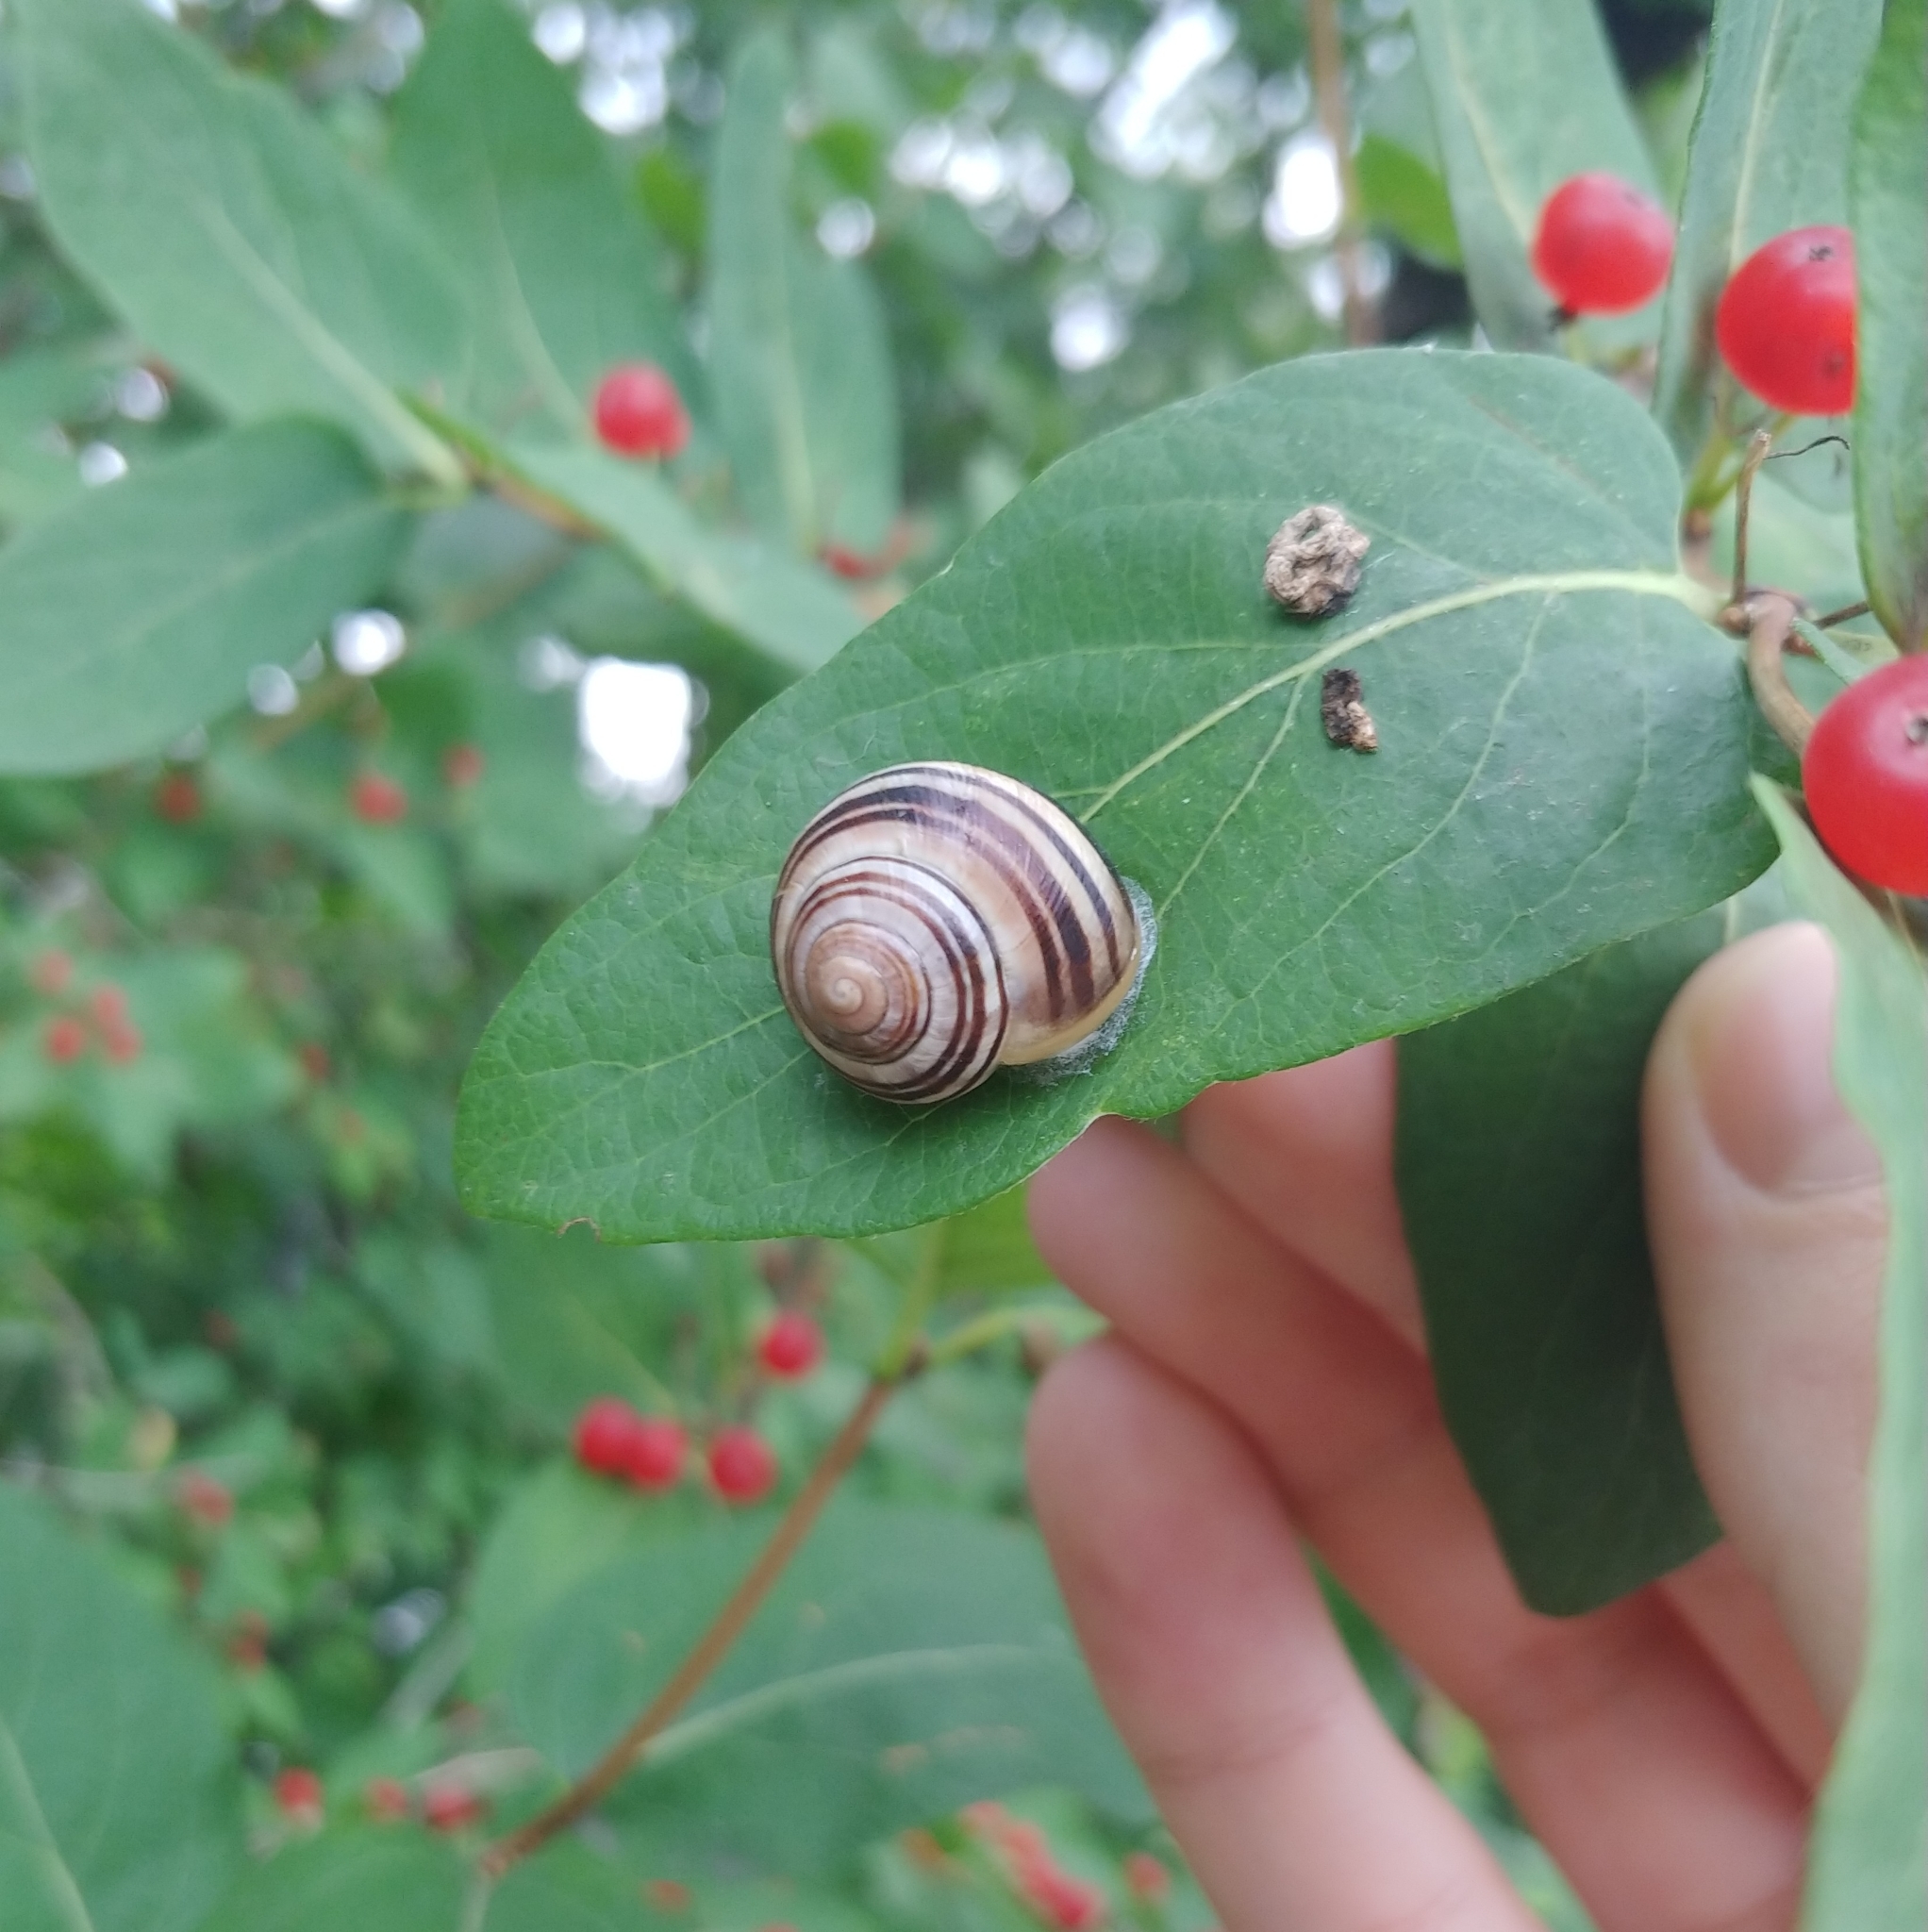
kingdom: Animalia
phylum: Mollusca
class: Gastropoda
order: Stylommatophora
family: Helicidae
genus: Cepaea
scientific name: Cepaea
